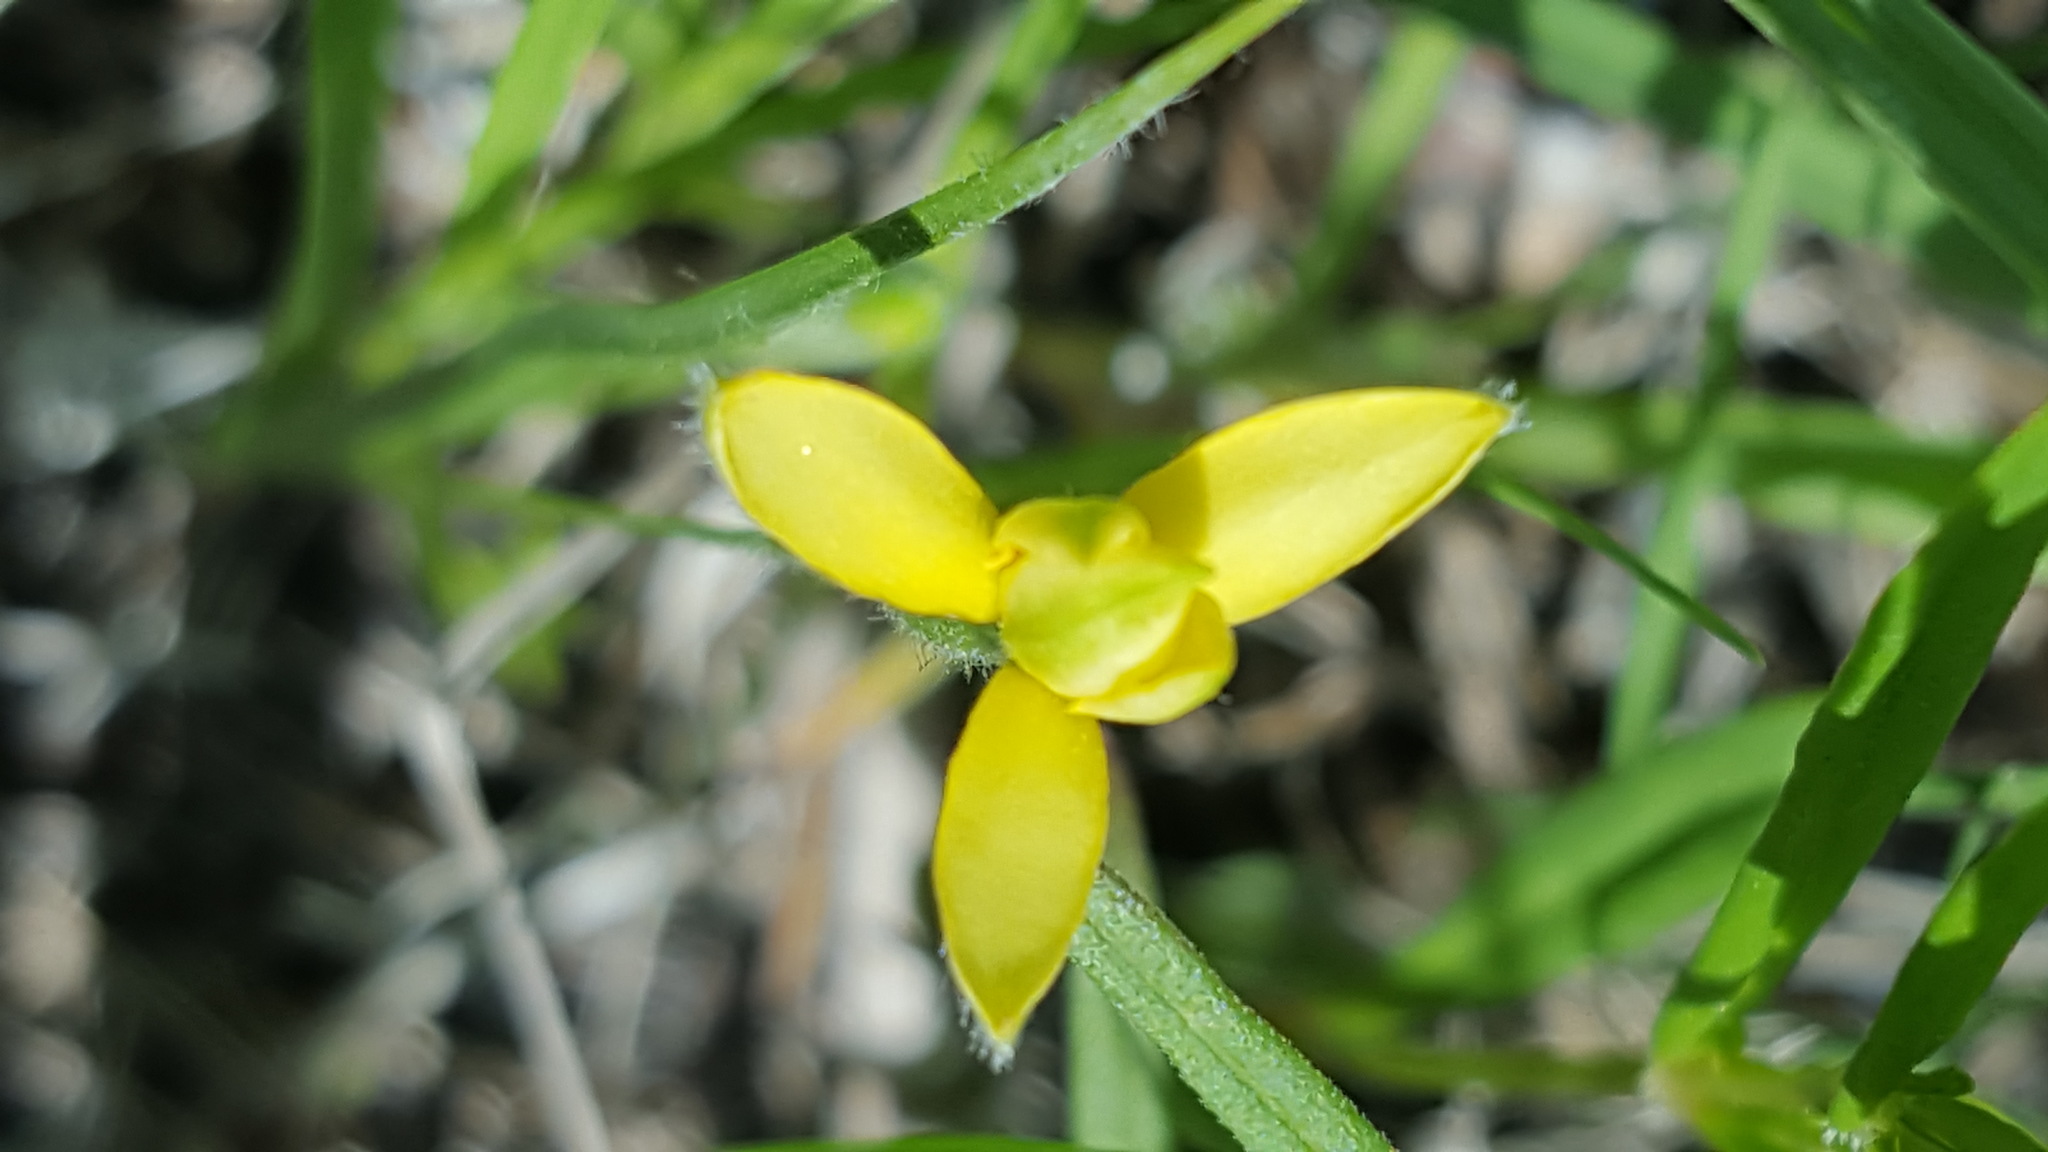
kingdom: Plantae
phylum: Tracheophyta
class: Liliopsida
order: Asparagales
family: Hypoxidaceae
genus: Hypoxis
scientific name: Hypoxis hirsuta
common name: Common goldstar
